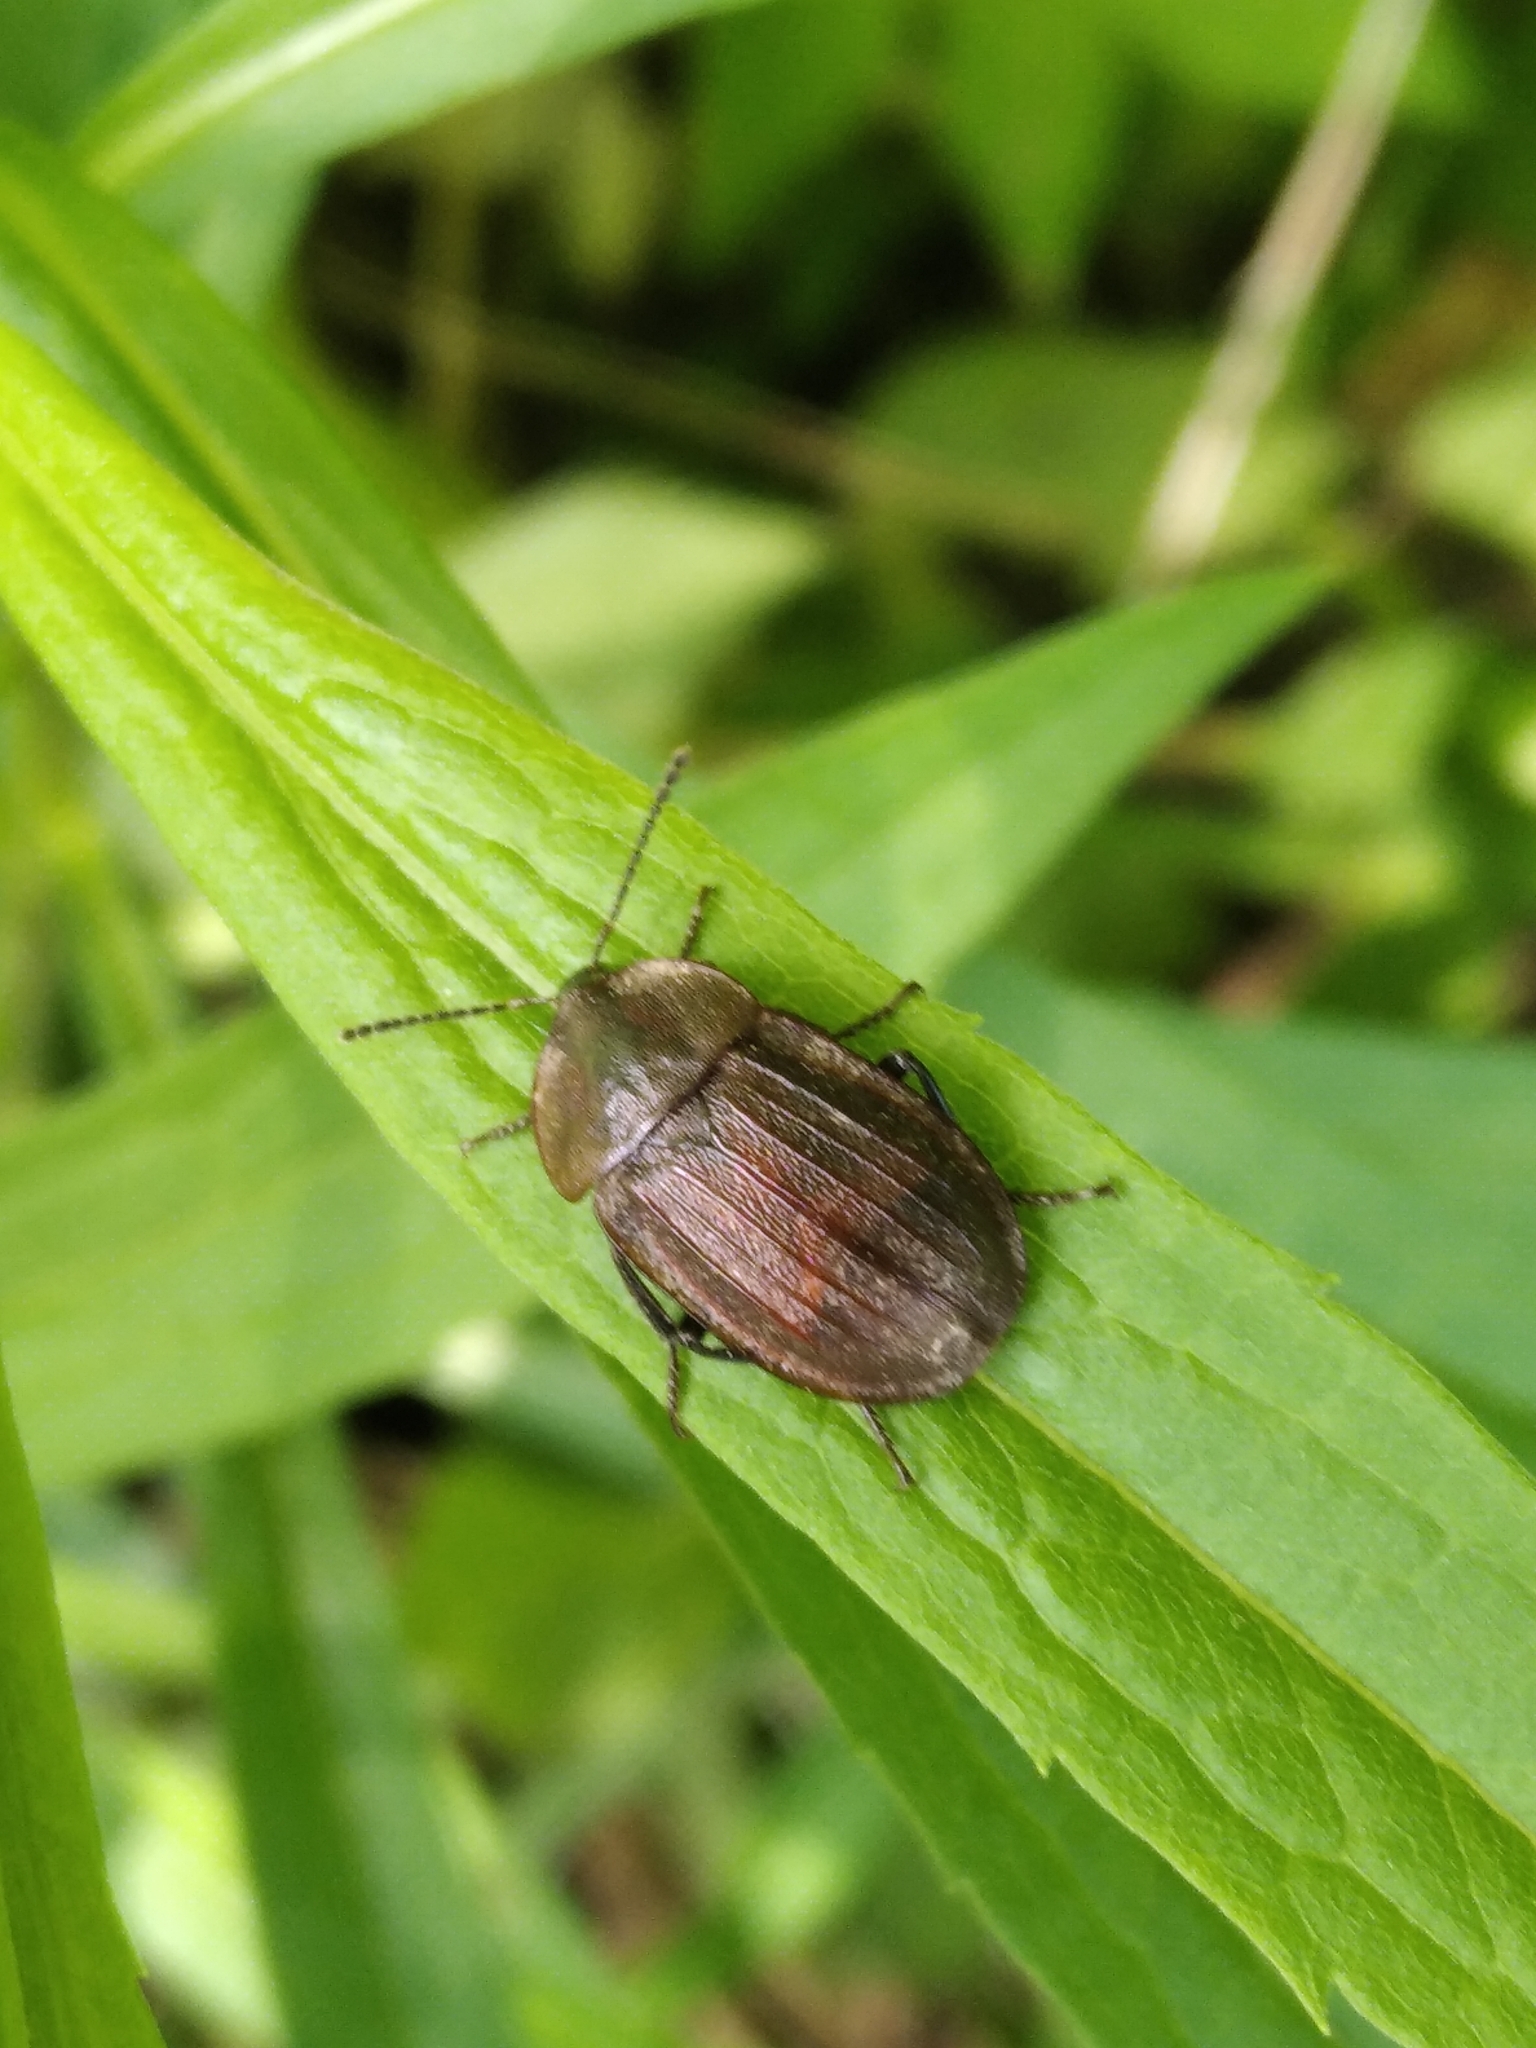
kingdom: Animalia
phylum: Arthropoda
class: Insecta
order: Coleoptera
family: Staphylinidae
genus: Silpha
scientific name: Silpha atrata
